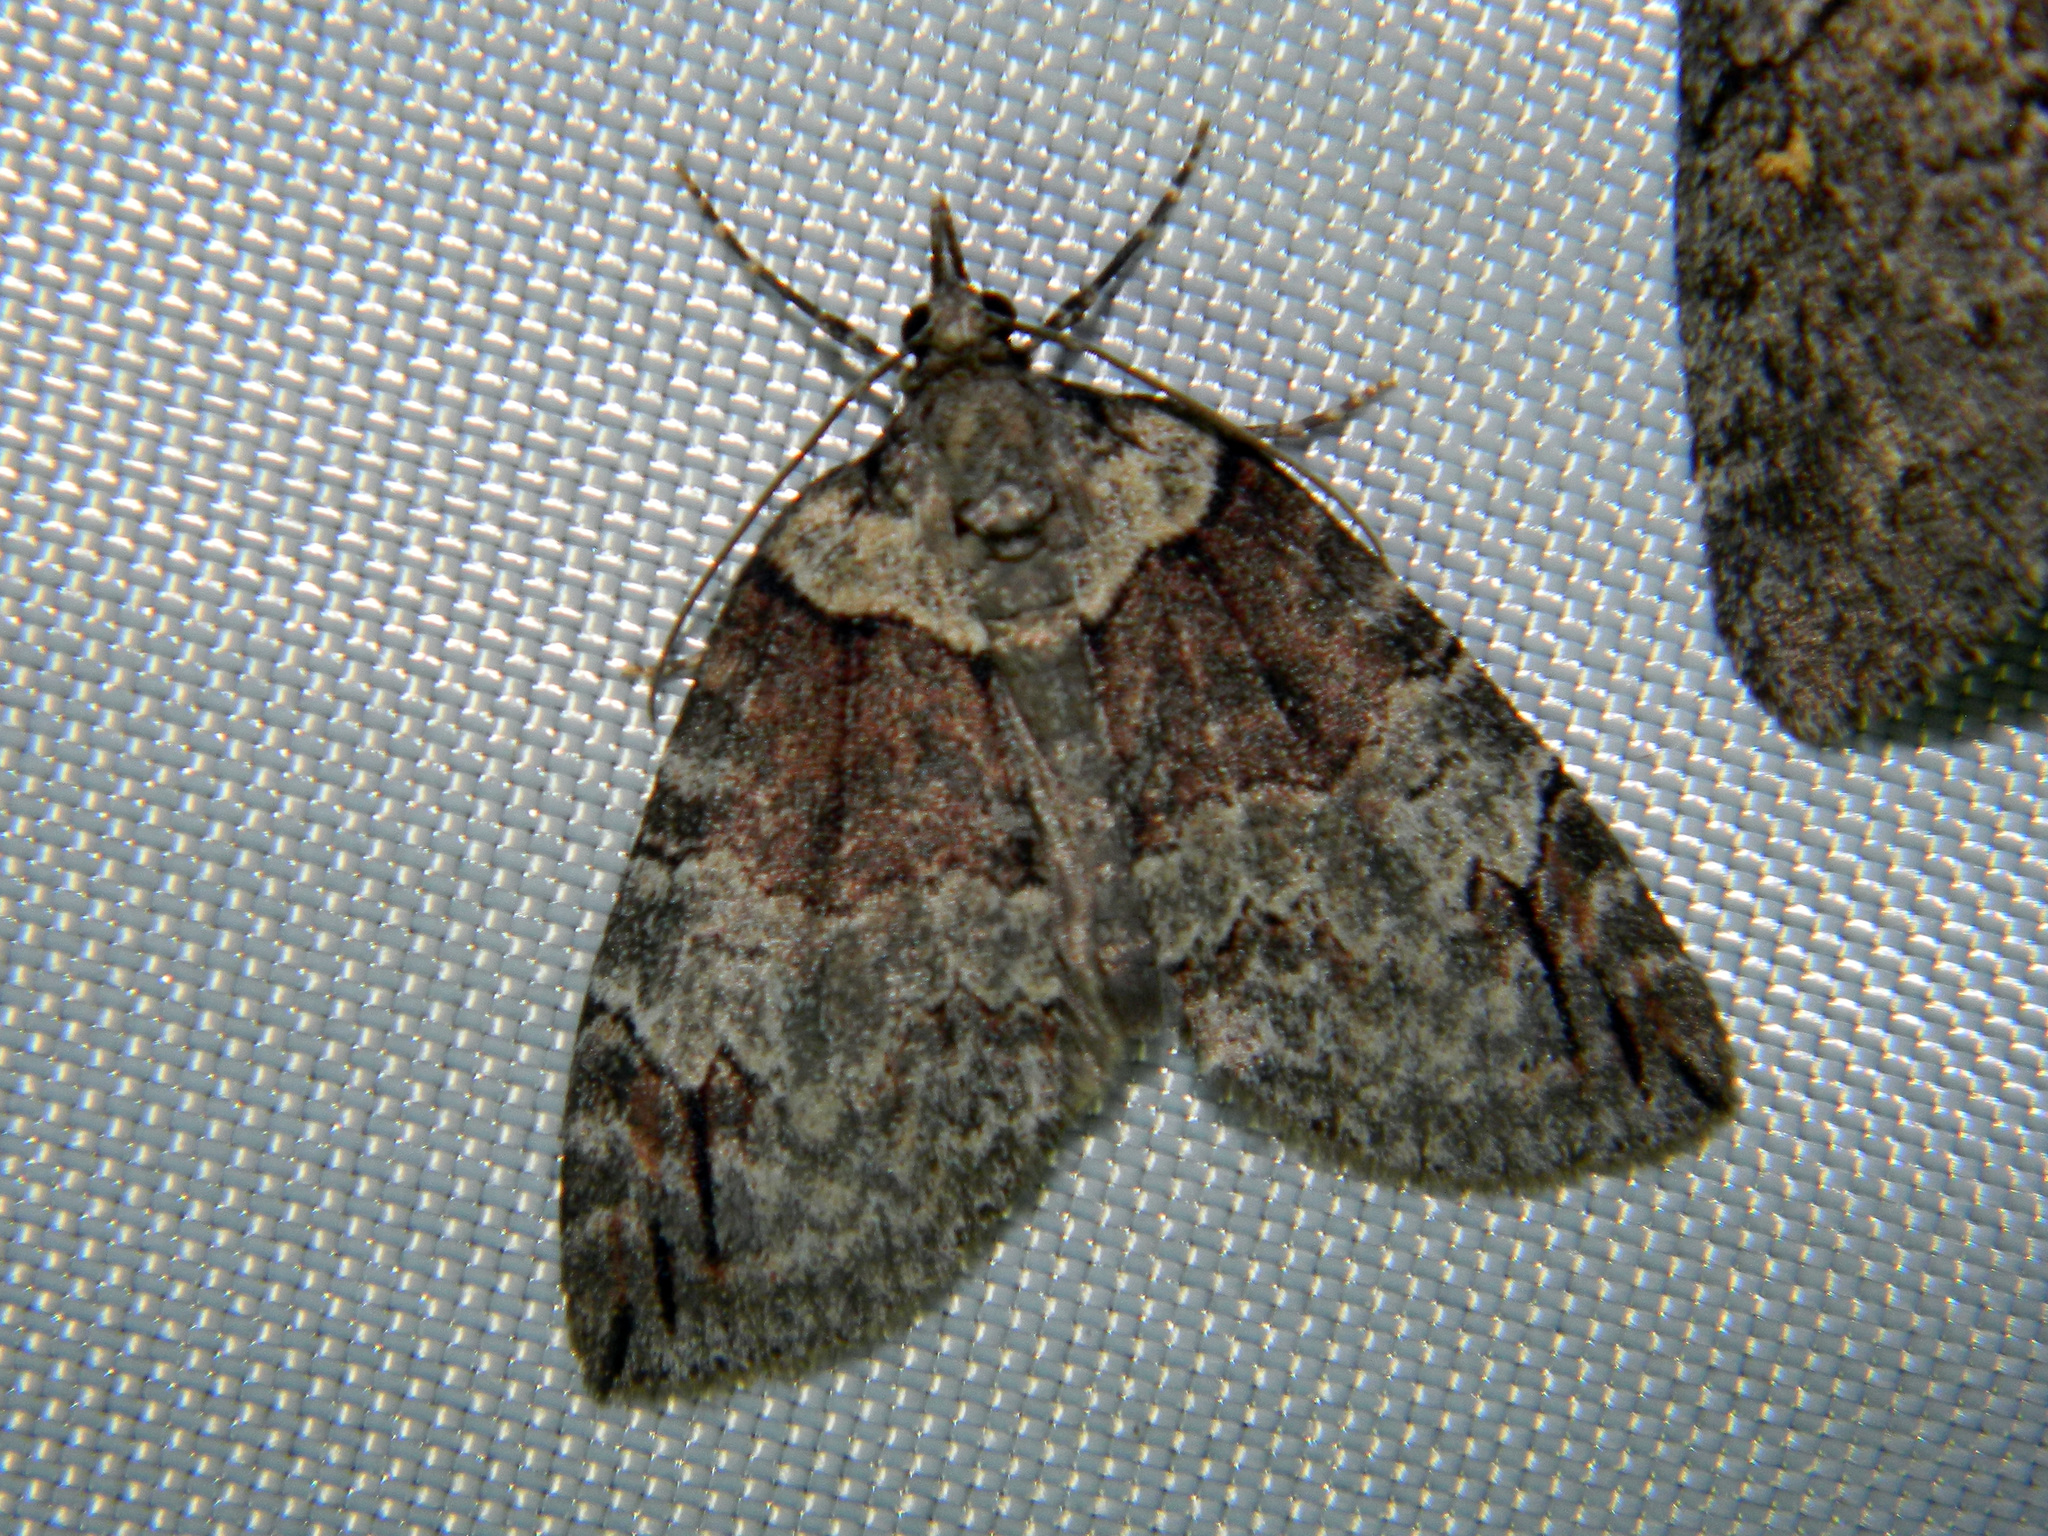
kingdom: Animalia
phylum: Arthropoda
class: Insecta
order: Lepidoptera
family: Geometridae
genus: Hydriomena
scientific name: Hydriomena ruberata
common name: Ruddy highflyer
